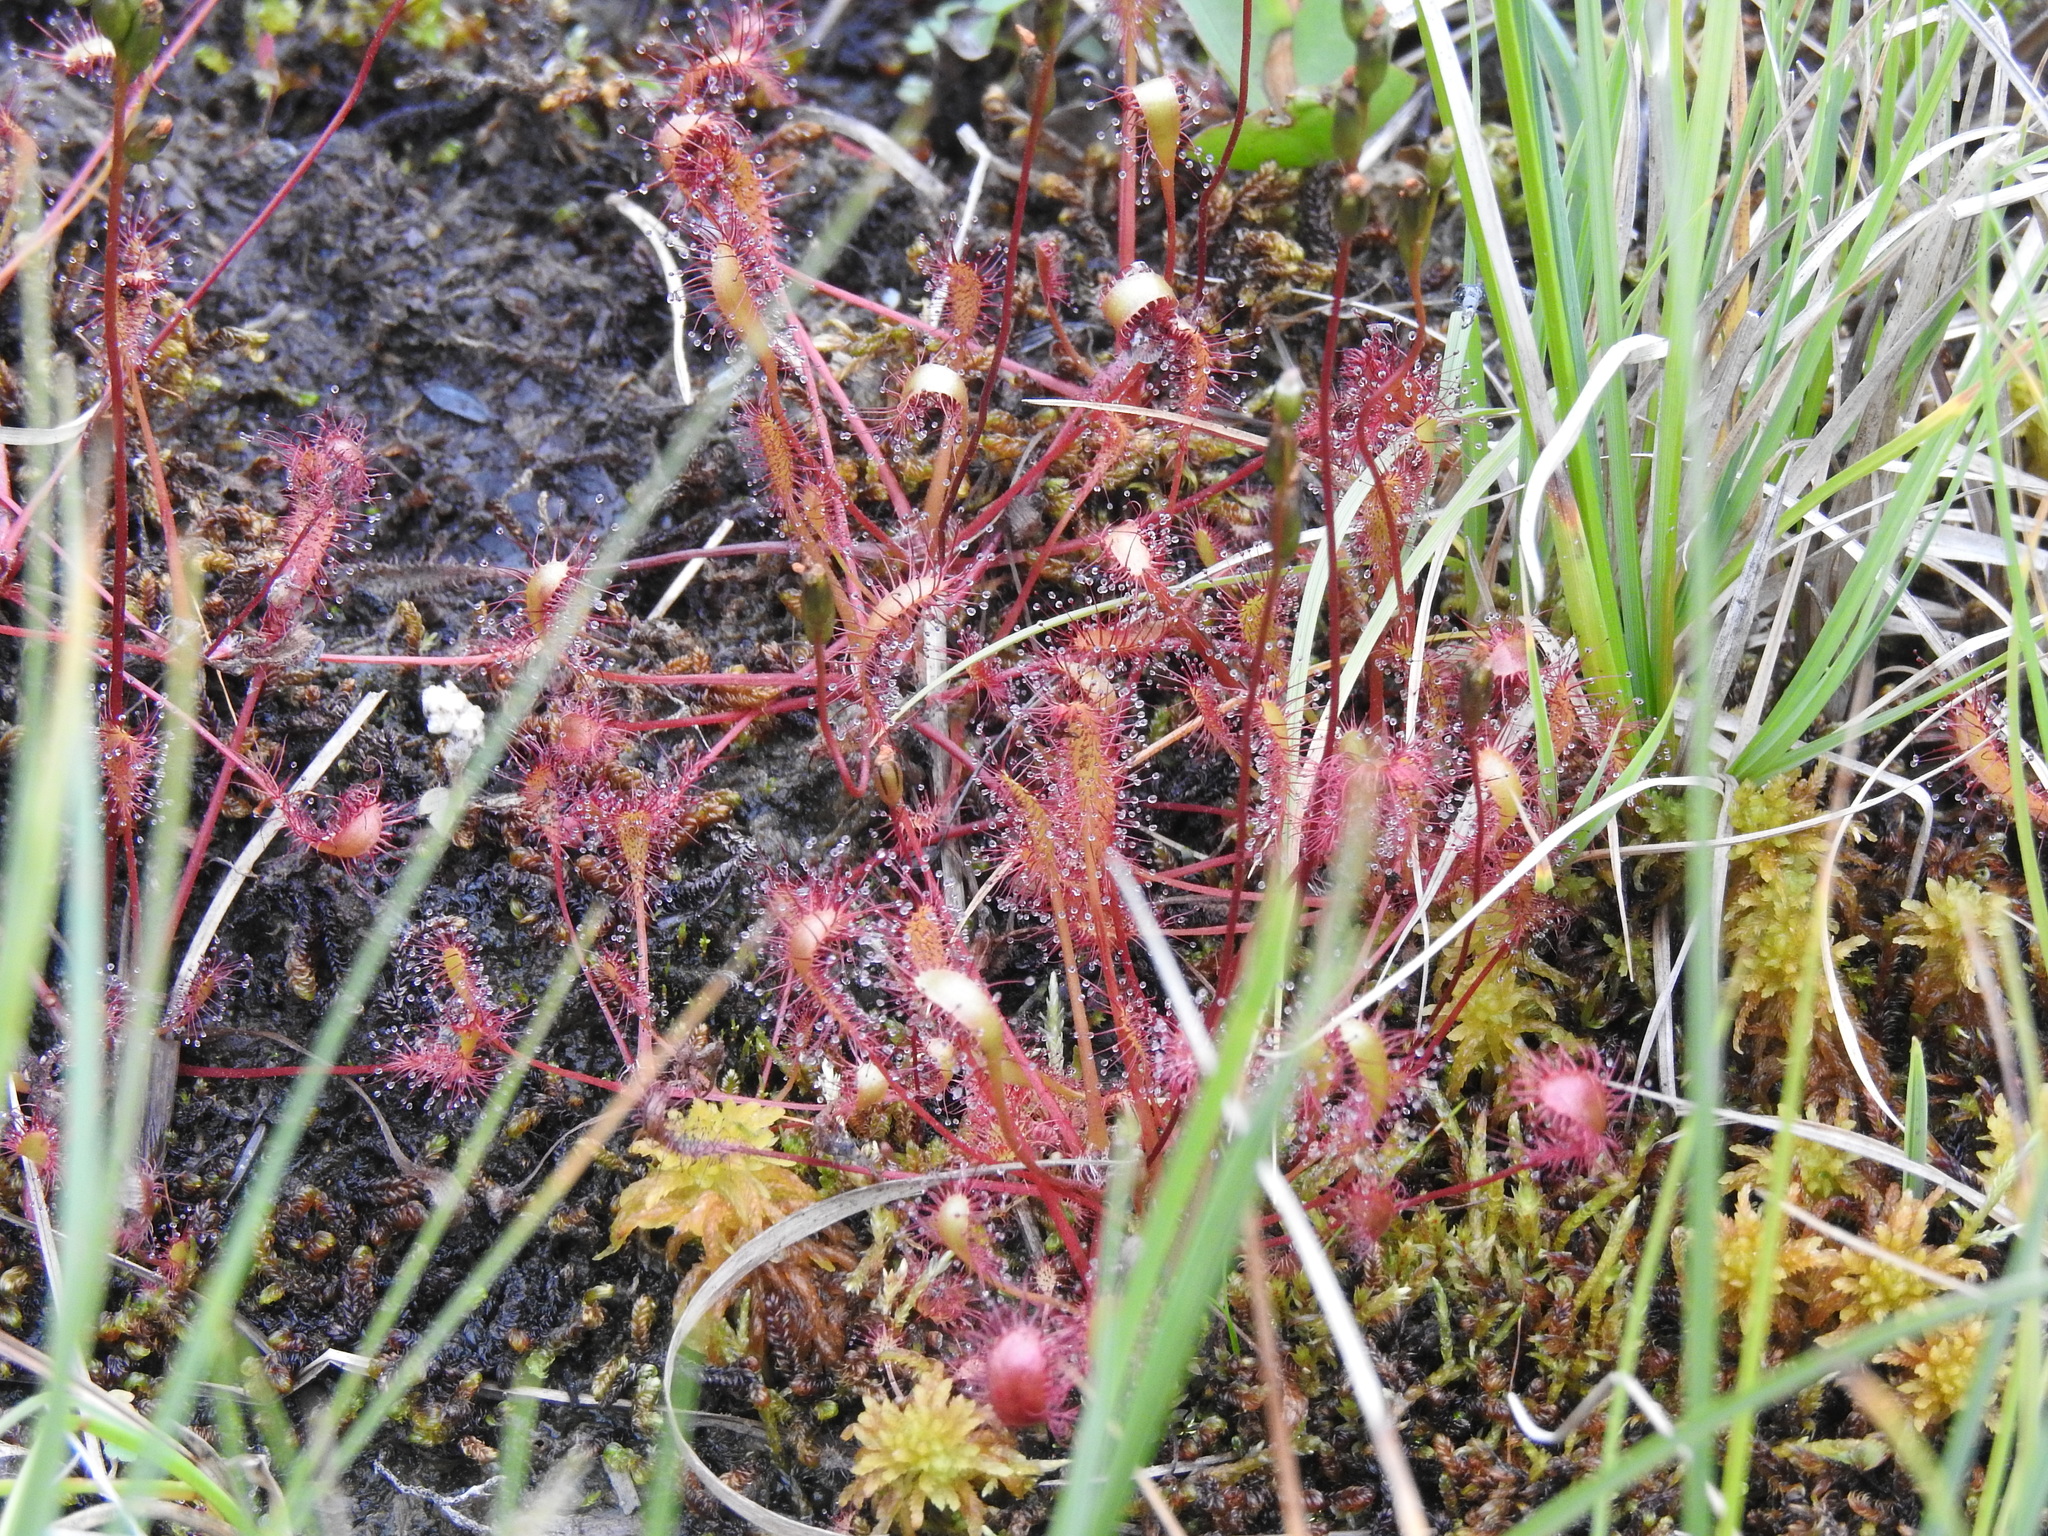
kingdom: Plantae
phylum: Tracheophyta
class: Magnoliopsida
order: Caryophyllales
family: Droseraceae
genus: Drosera
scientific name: Drosera anglica
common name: Great sundew
